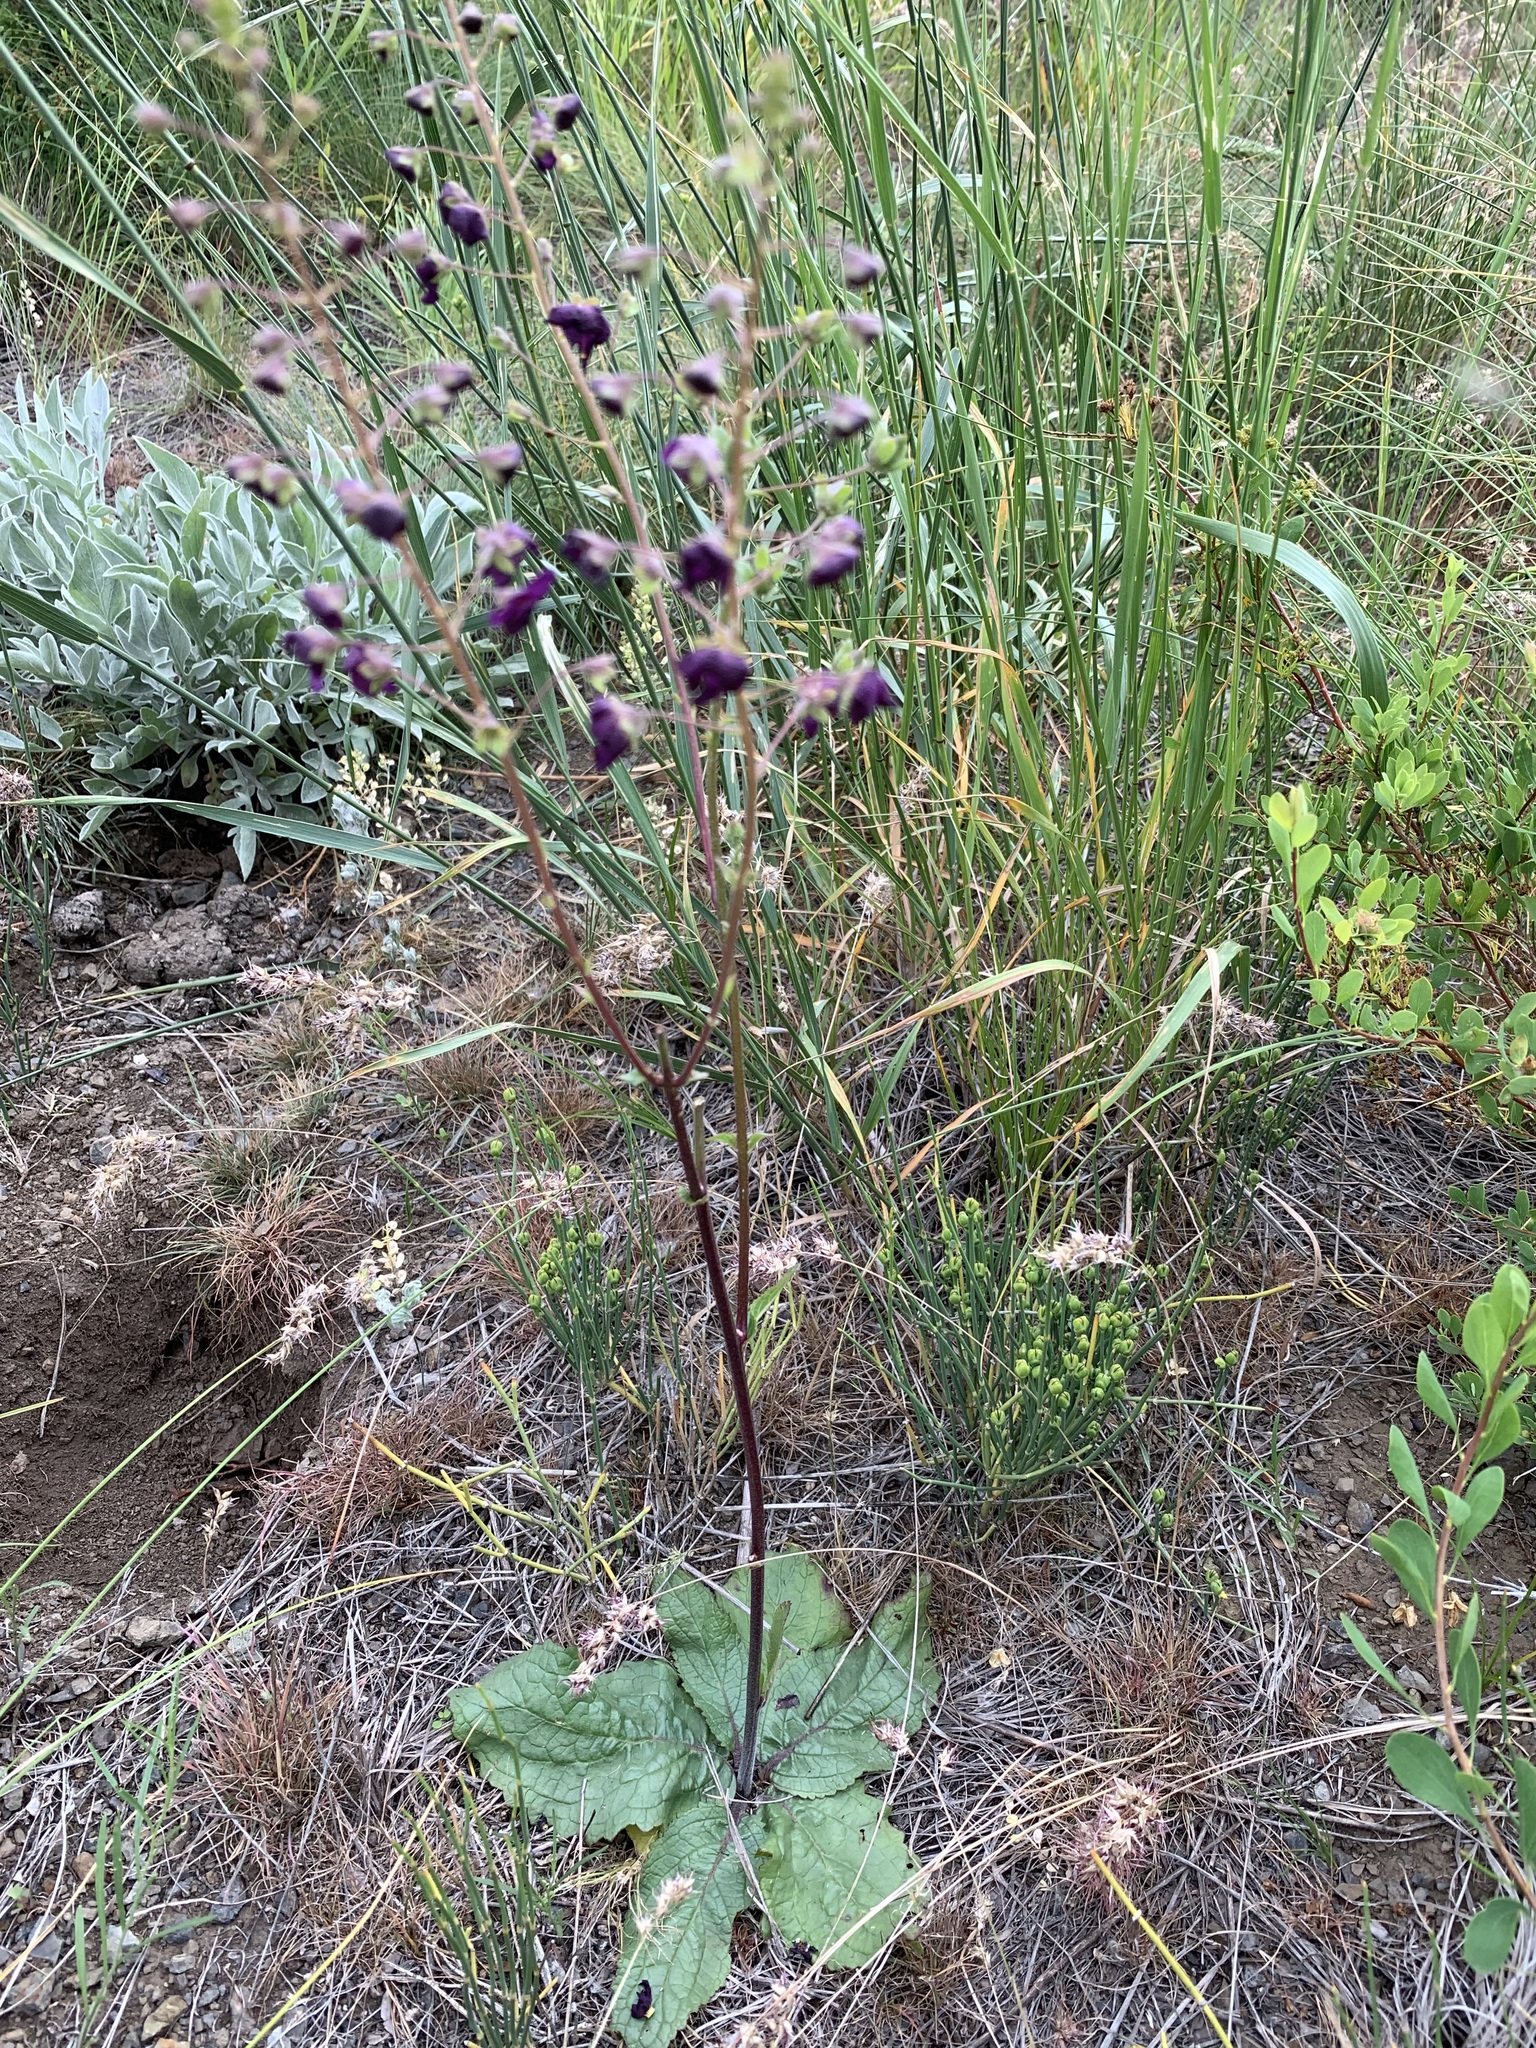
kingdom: Plantae
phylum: Tracheophyta
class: Magnoliopsida
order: Lamiales
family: Scrophulariaceae
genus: Verbascum
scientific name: Verbascum phoeniceum
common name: Purple mullein
